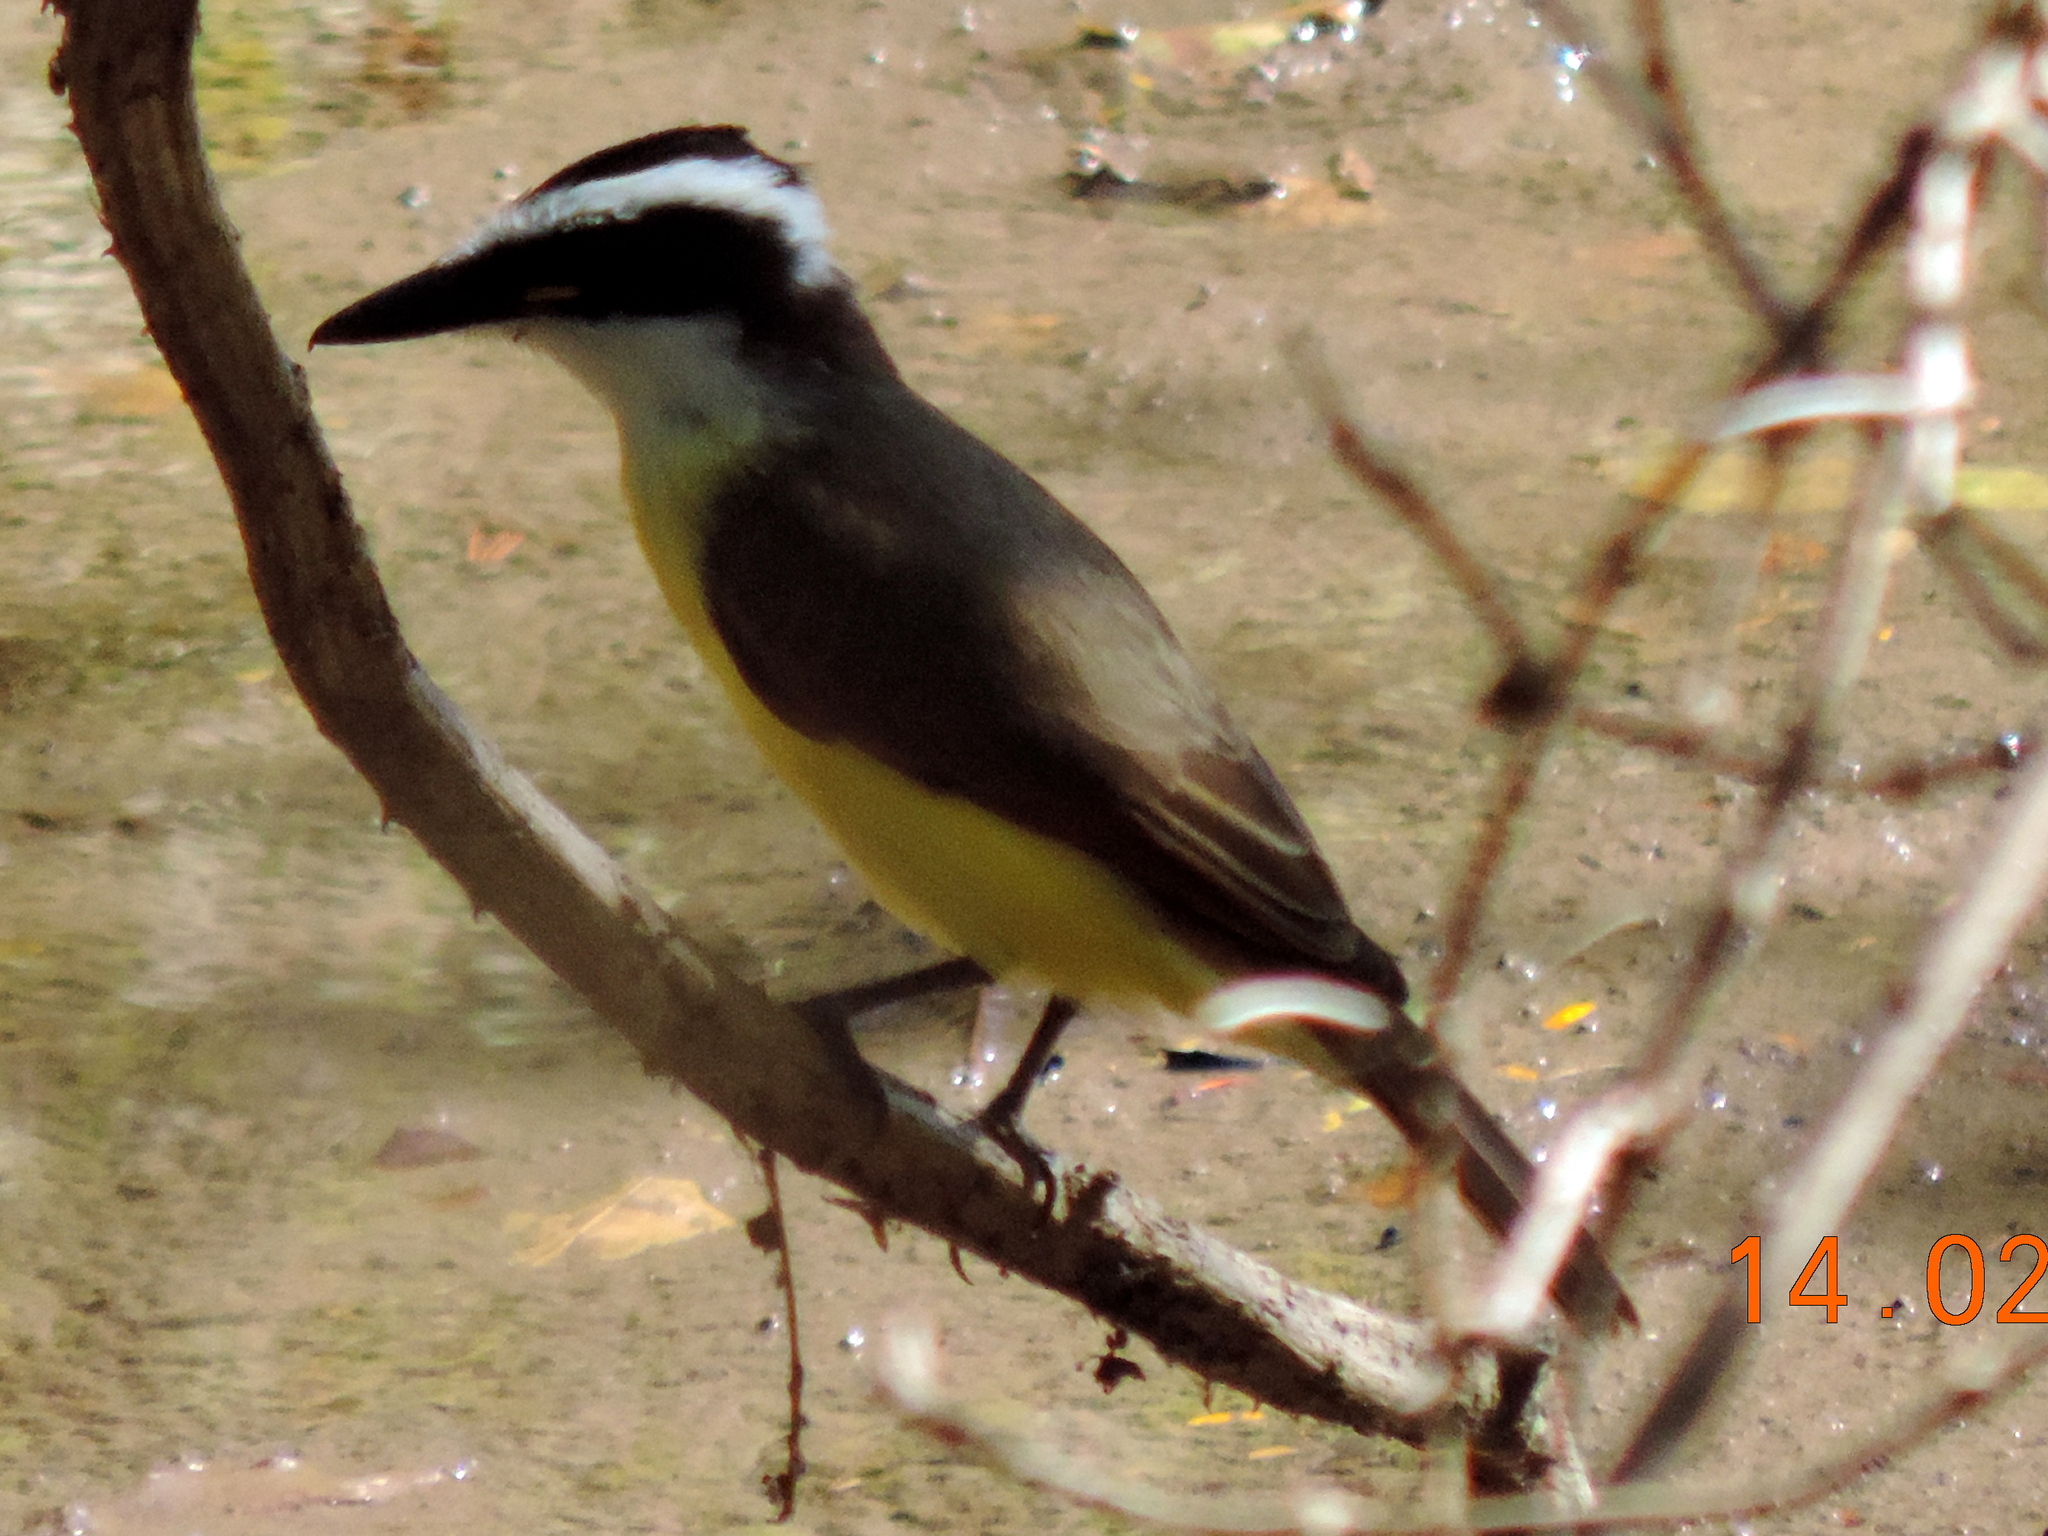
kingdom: Animalia
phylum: Chordata
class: Aves
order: Passeriformes
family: Tyrannidae
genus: Pitangus
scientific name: Pitangus sulphuratus
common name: Great kiskadee
